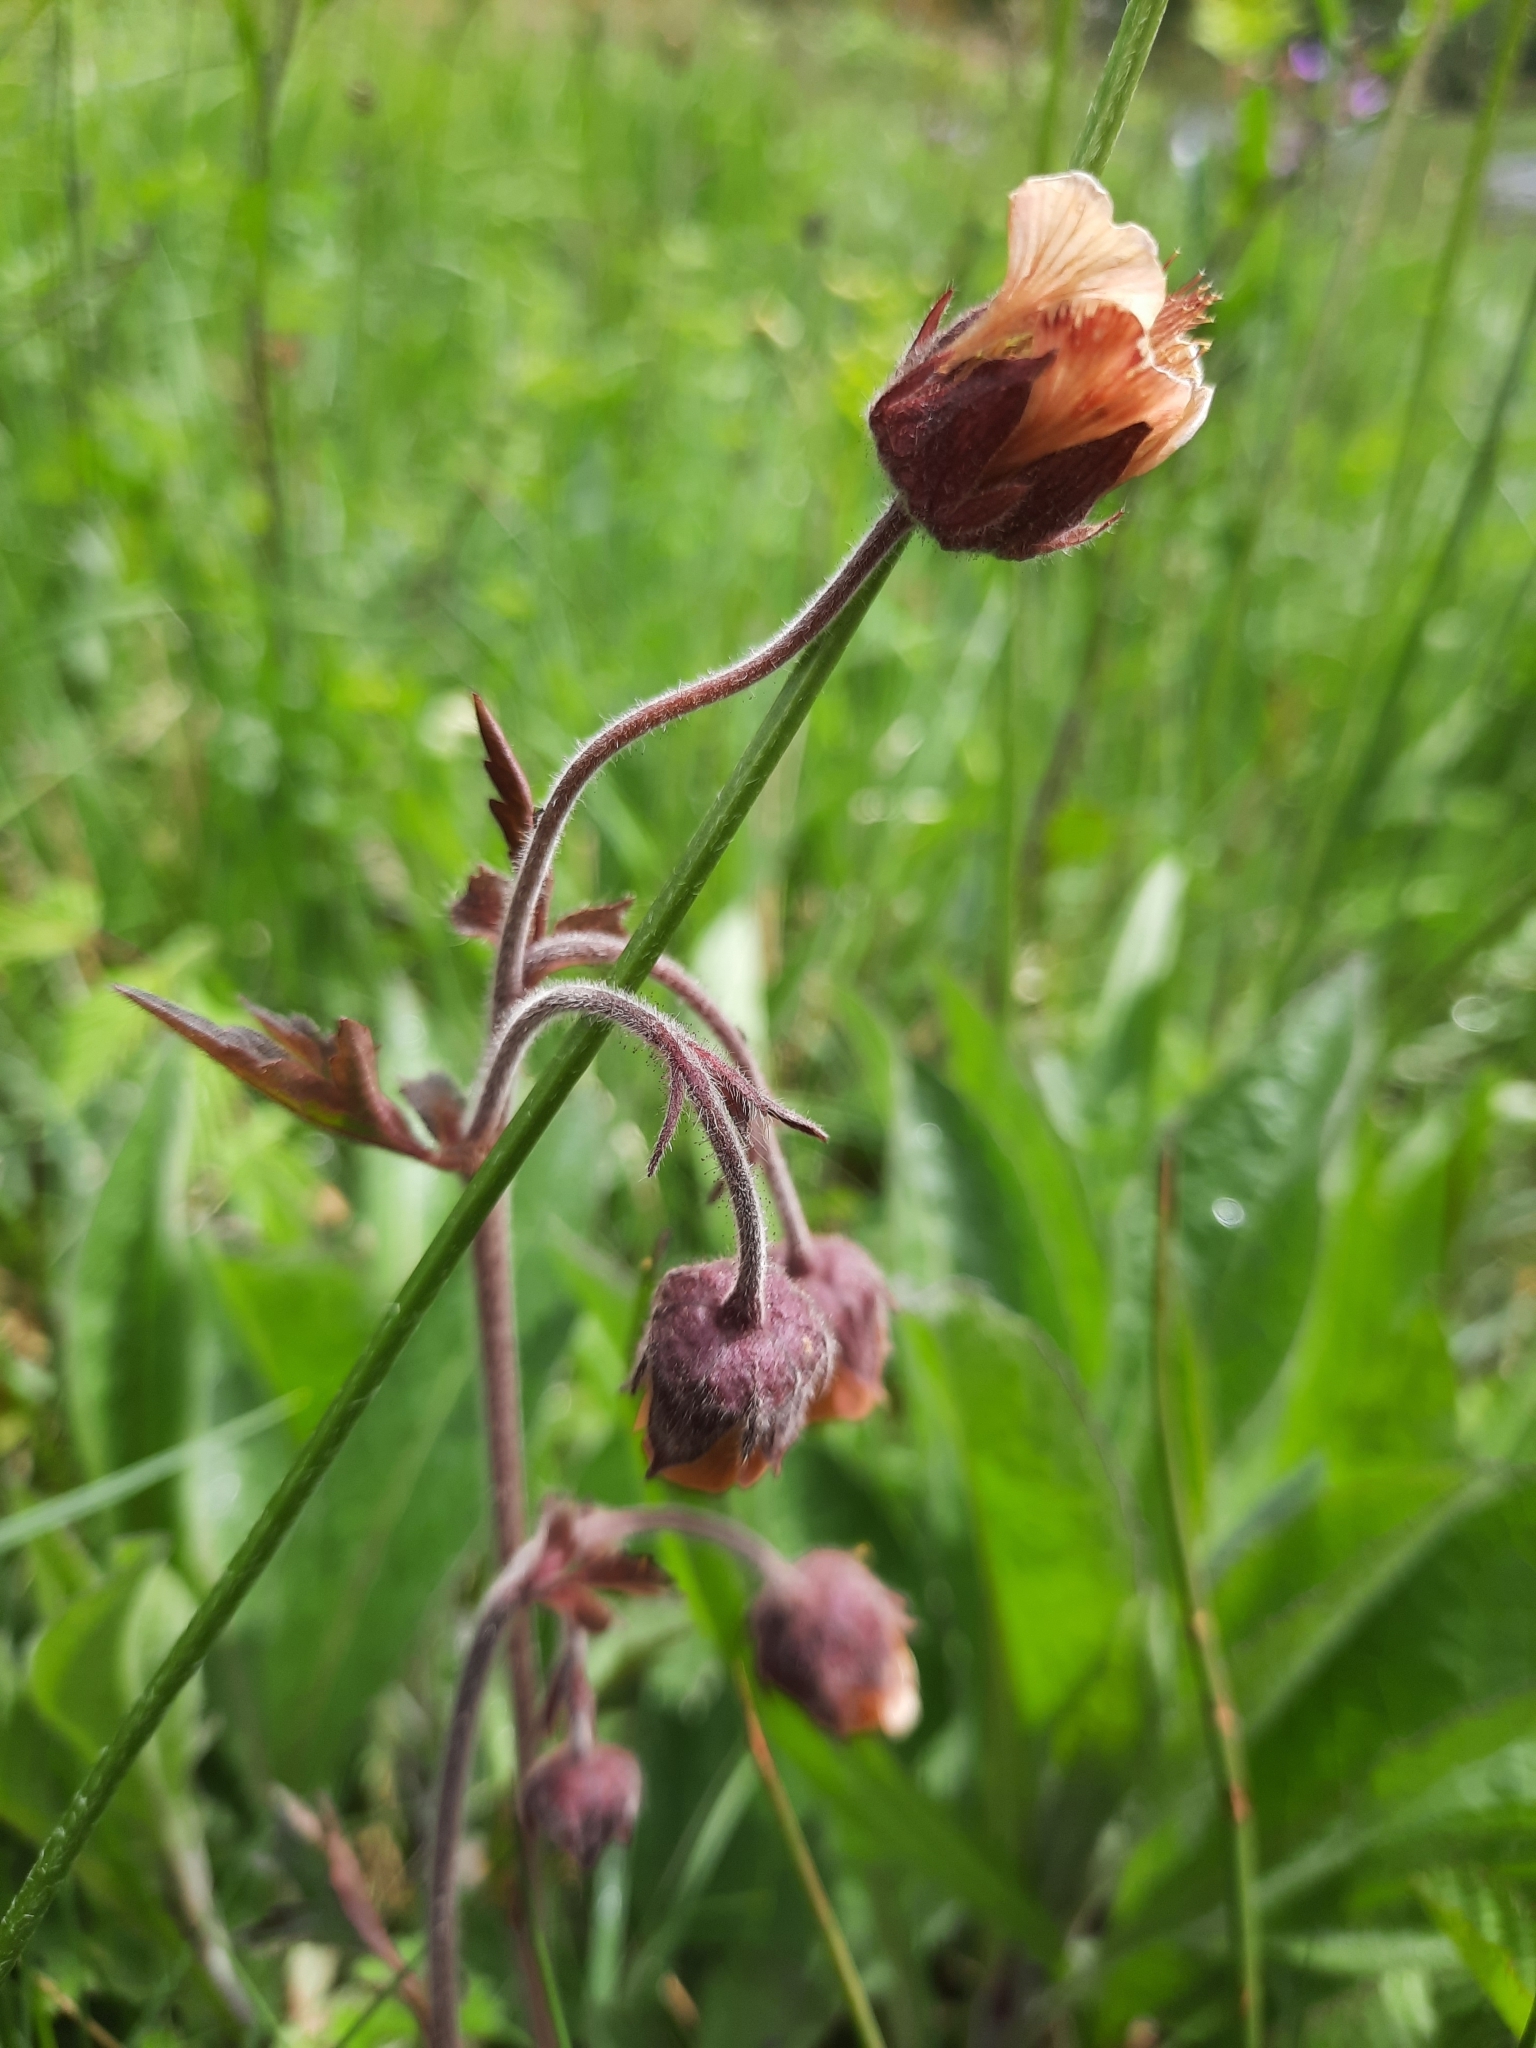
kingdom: Plantae
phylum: Tracheophyta
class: Magnoliopsida
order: Rosales
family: Rosaceae
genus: Geum
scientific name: Geum rivale
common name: Water avens
